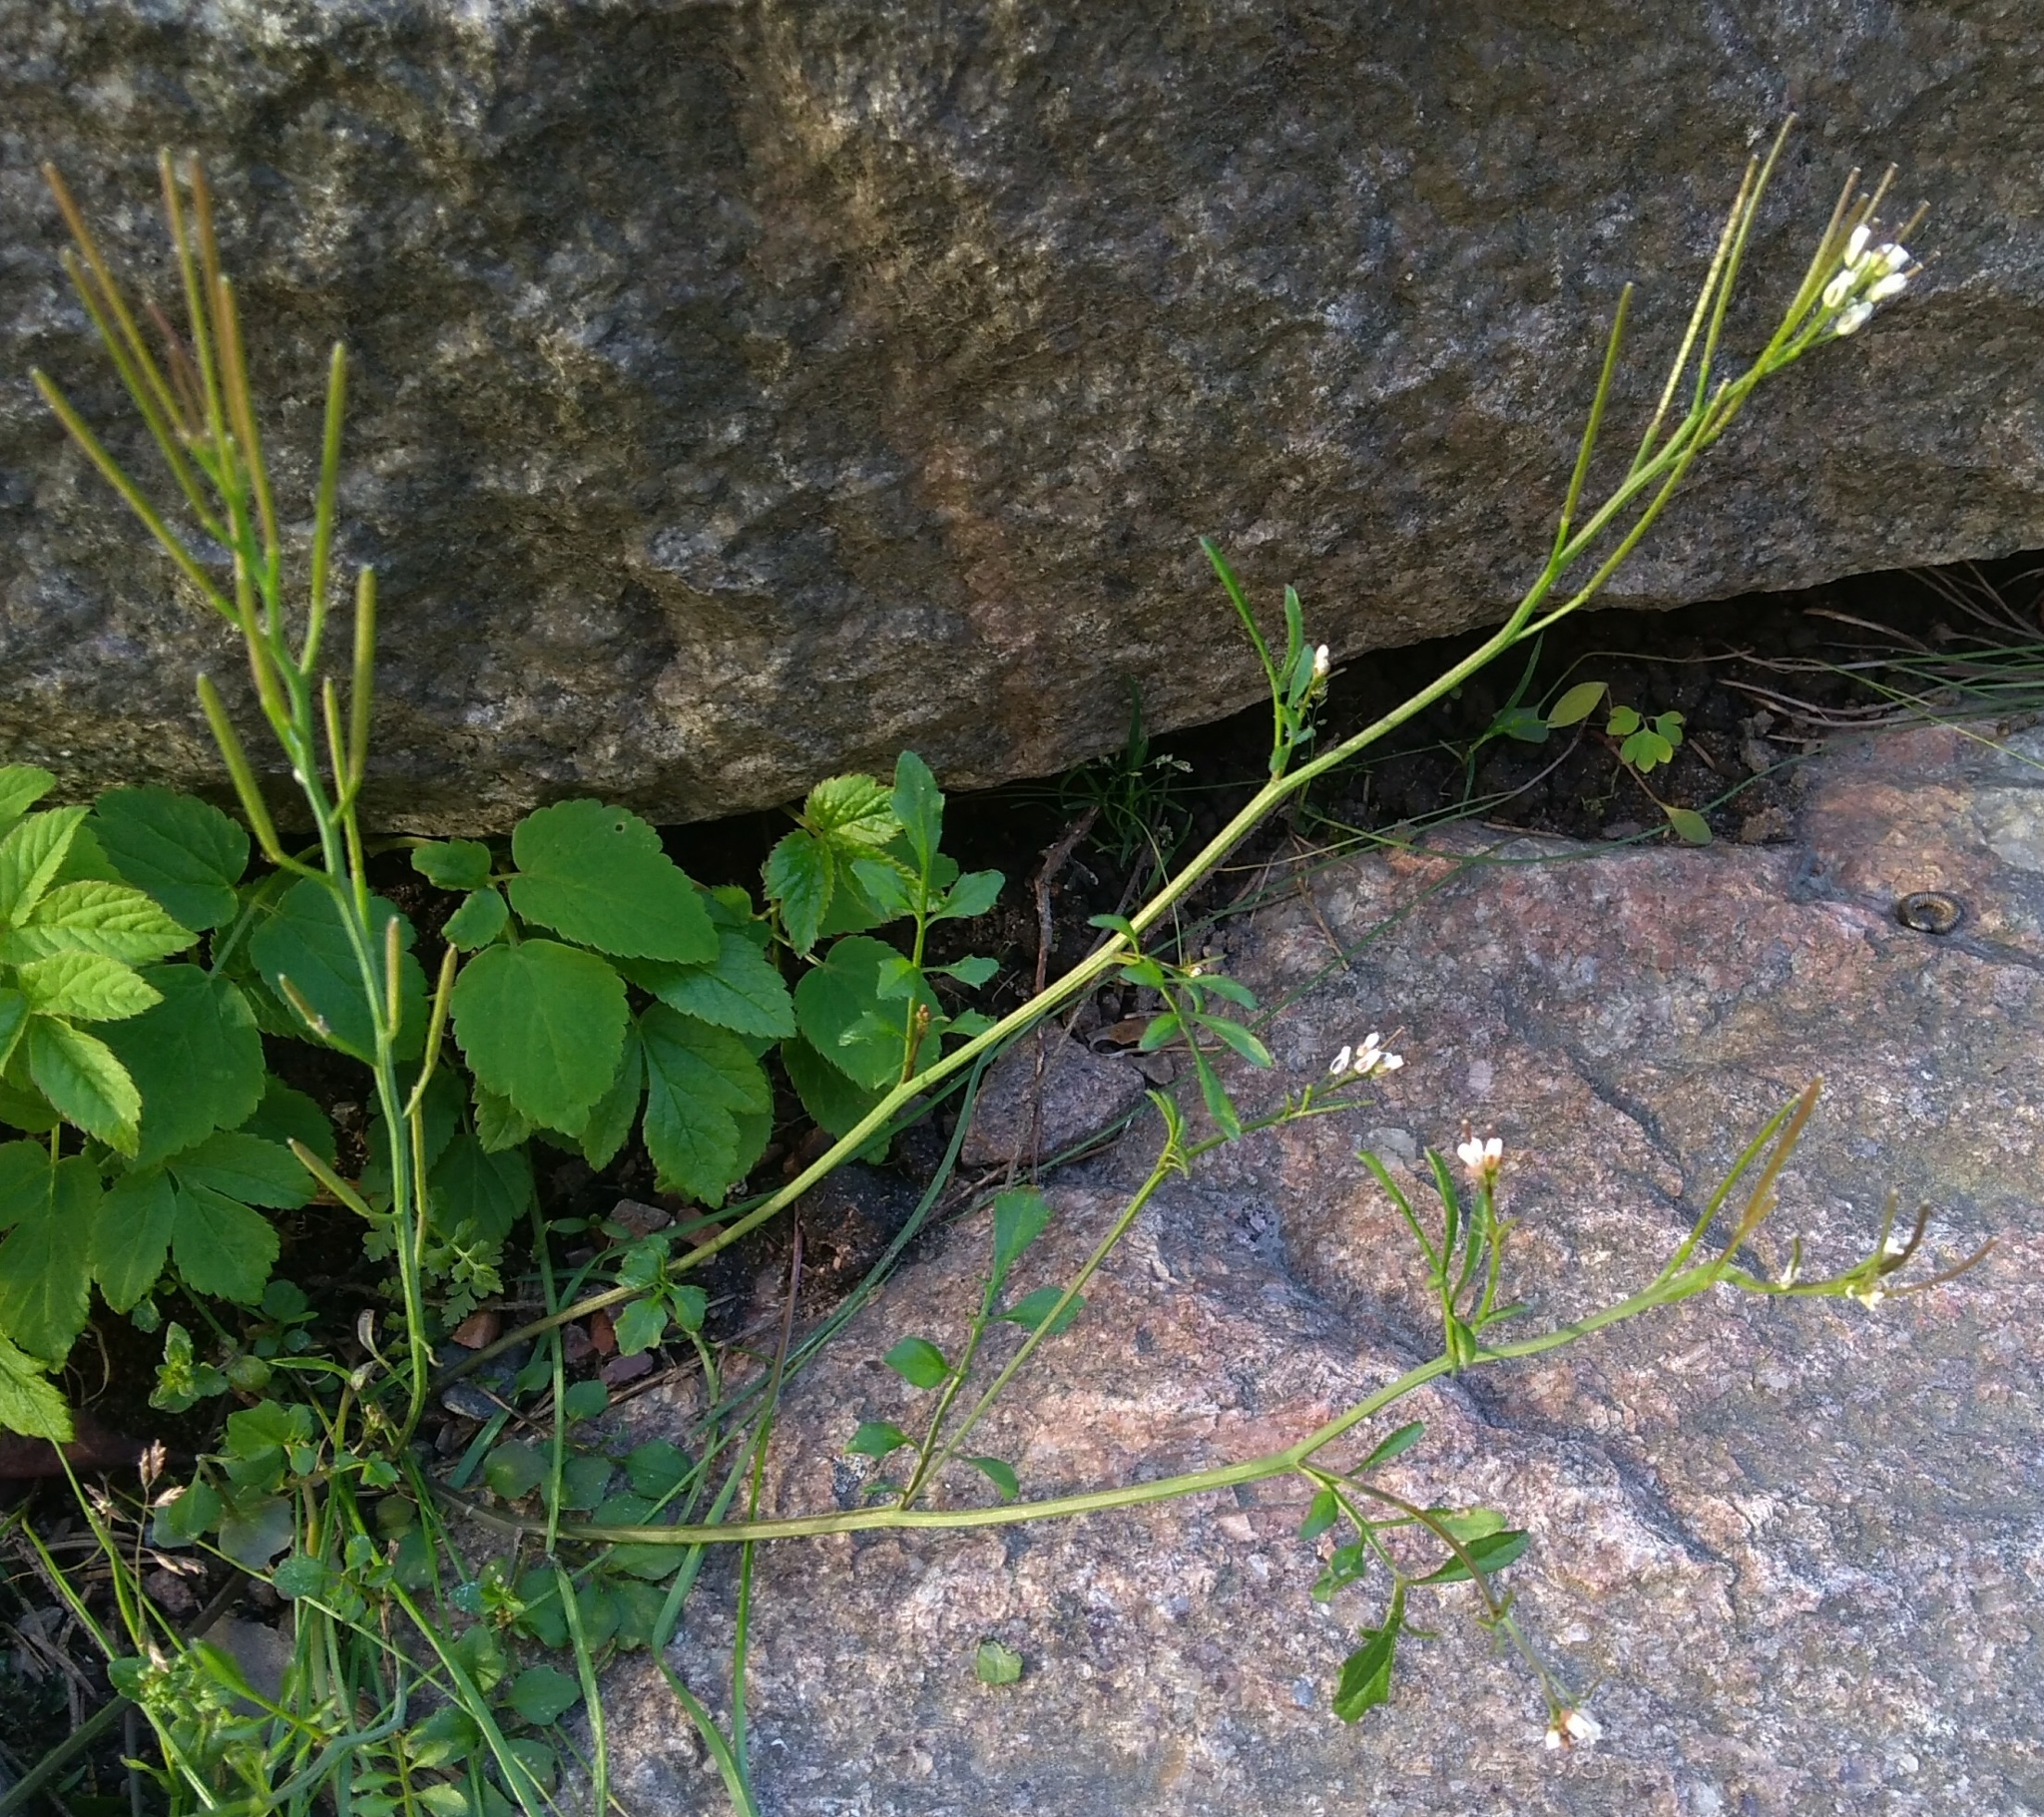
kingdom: Plantae
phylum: Tracheophyta
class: Magnoliopsida
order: Brassicales
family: Brassicaceae
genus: Cardamine
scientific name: Cardamine hirsuta
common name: Hairy bittercress
